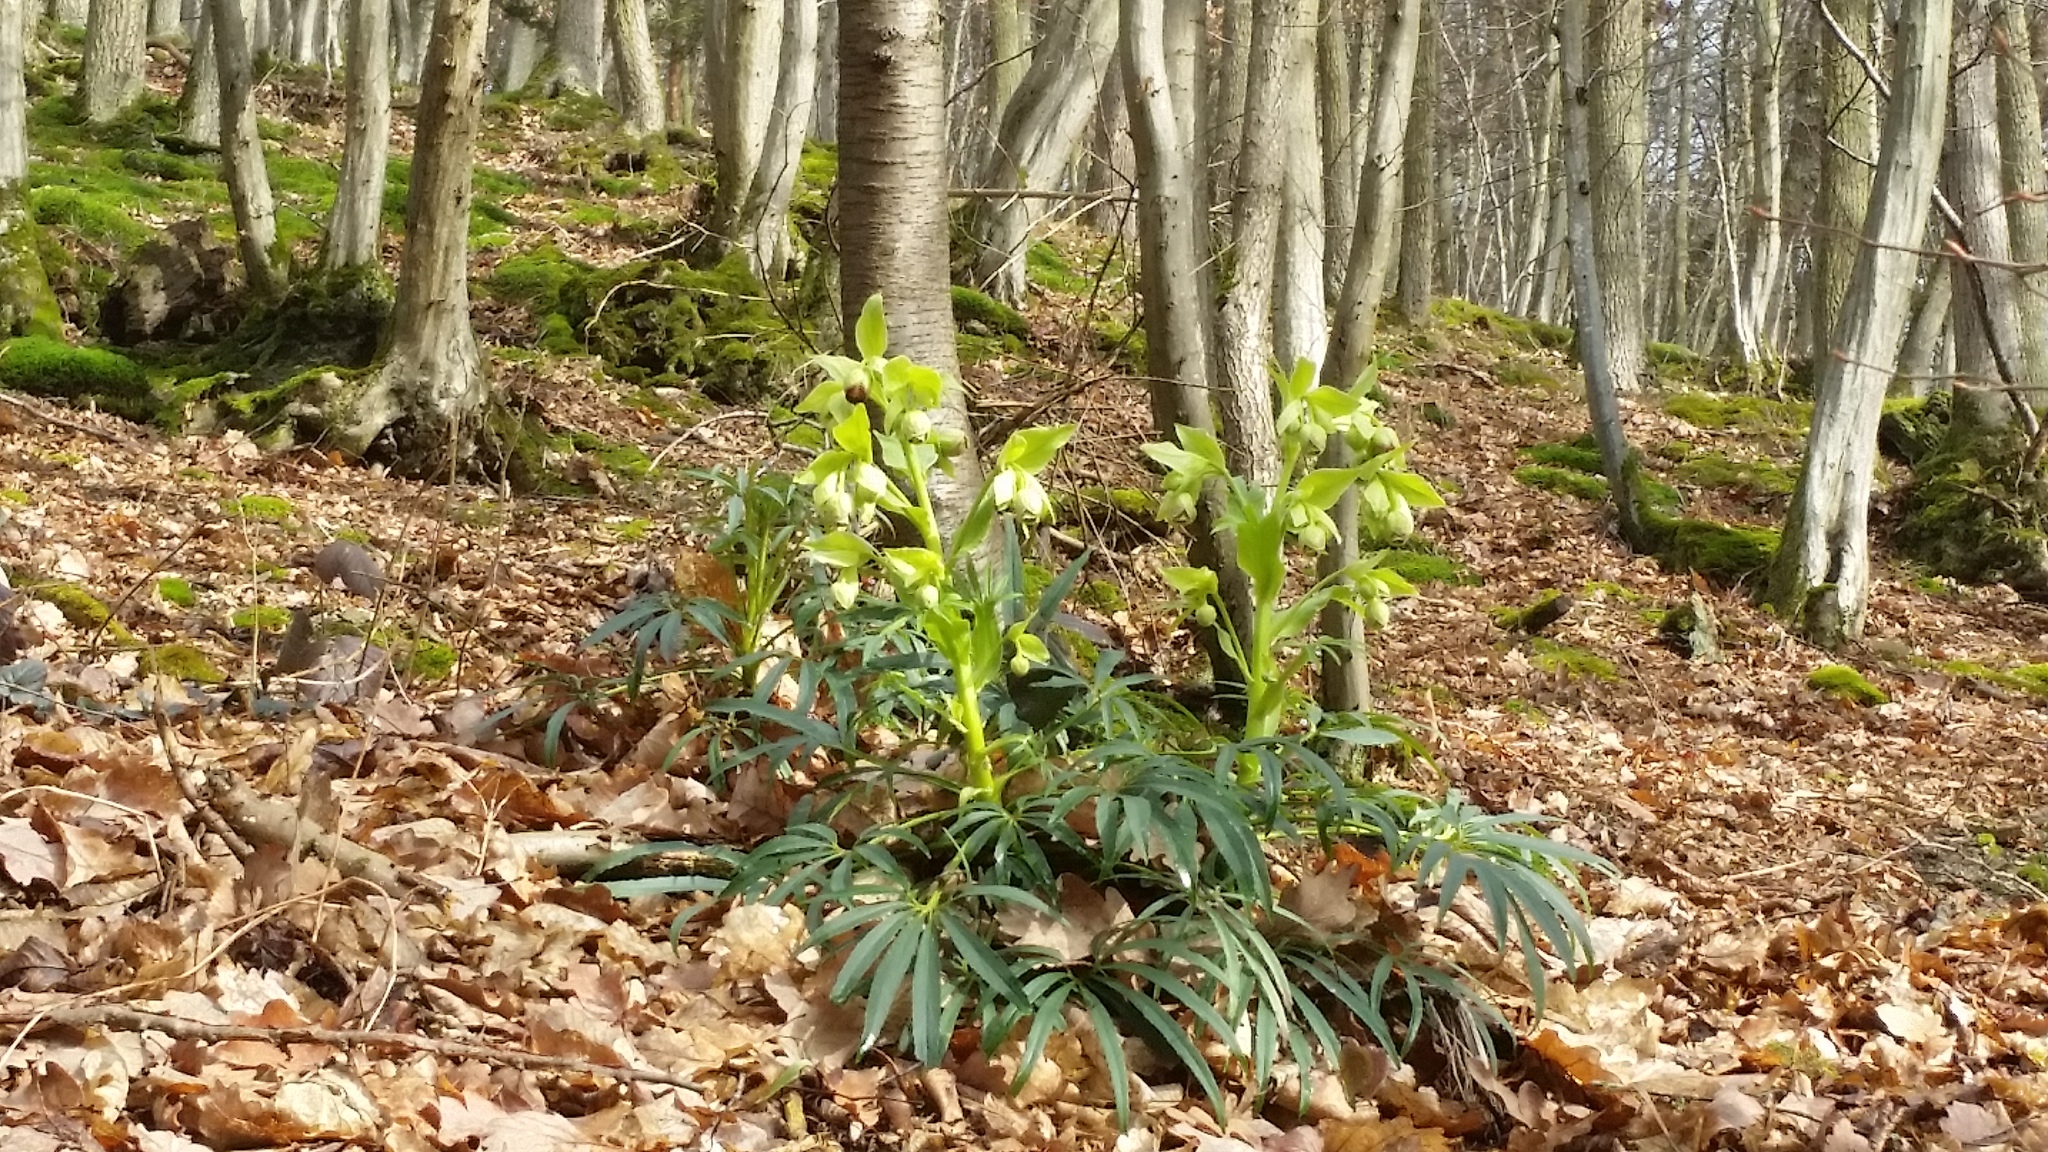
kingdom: Plantae
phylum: Tracheophyta
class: Magnoliopsida
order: Ranunculales
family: Ranunculaceae
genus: Helleborus
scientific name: Helleborus foetidus
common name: Stinking hellebore
